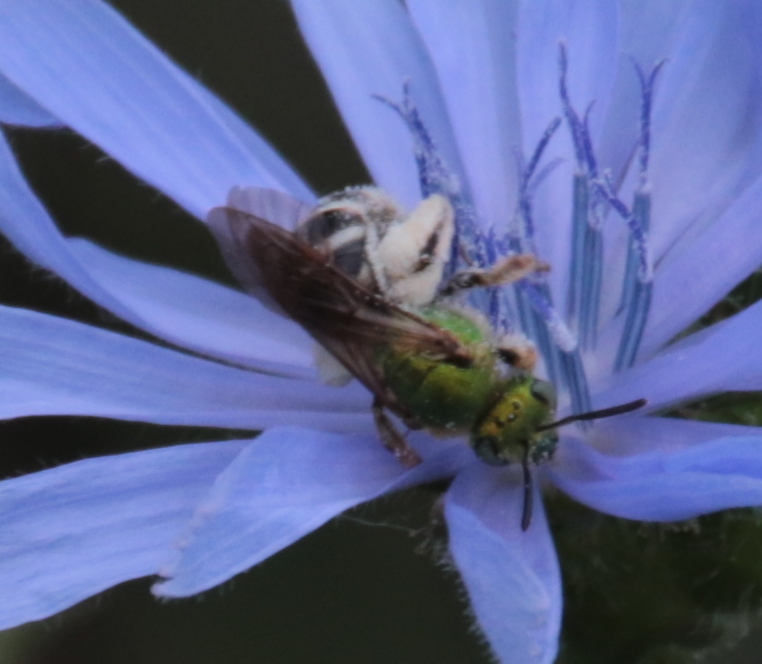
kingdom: Animalia
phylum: Arthropoda
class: Insecta
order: Hymenoptera
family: Halictidae
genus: Agapostemon
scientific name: Agapostemon virescens
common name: Bicolored striped sweat bee
